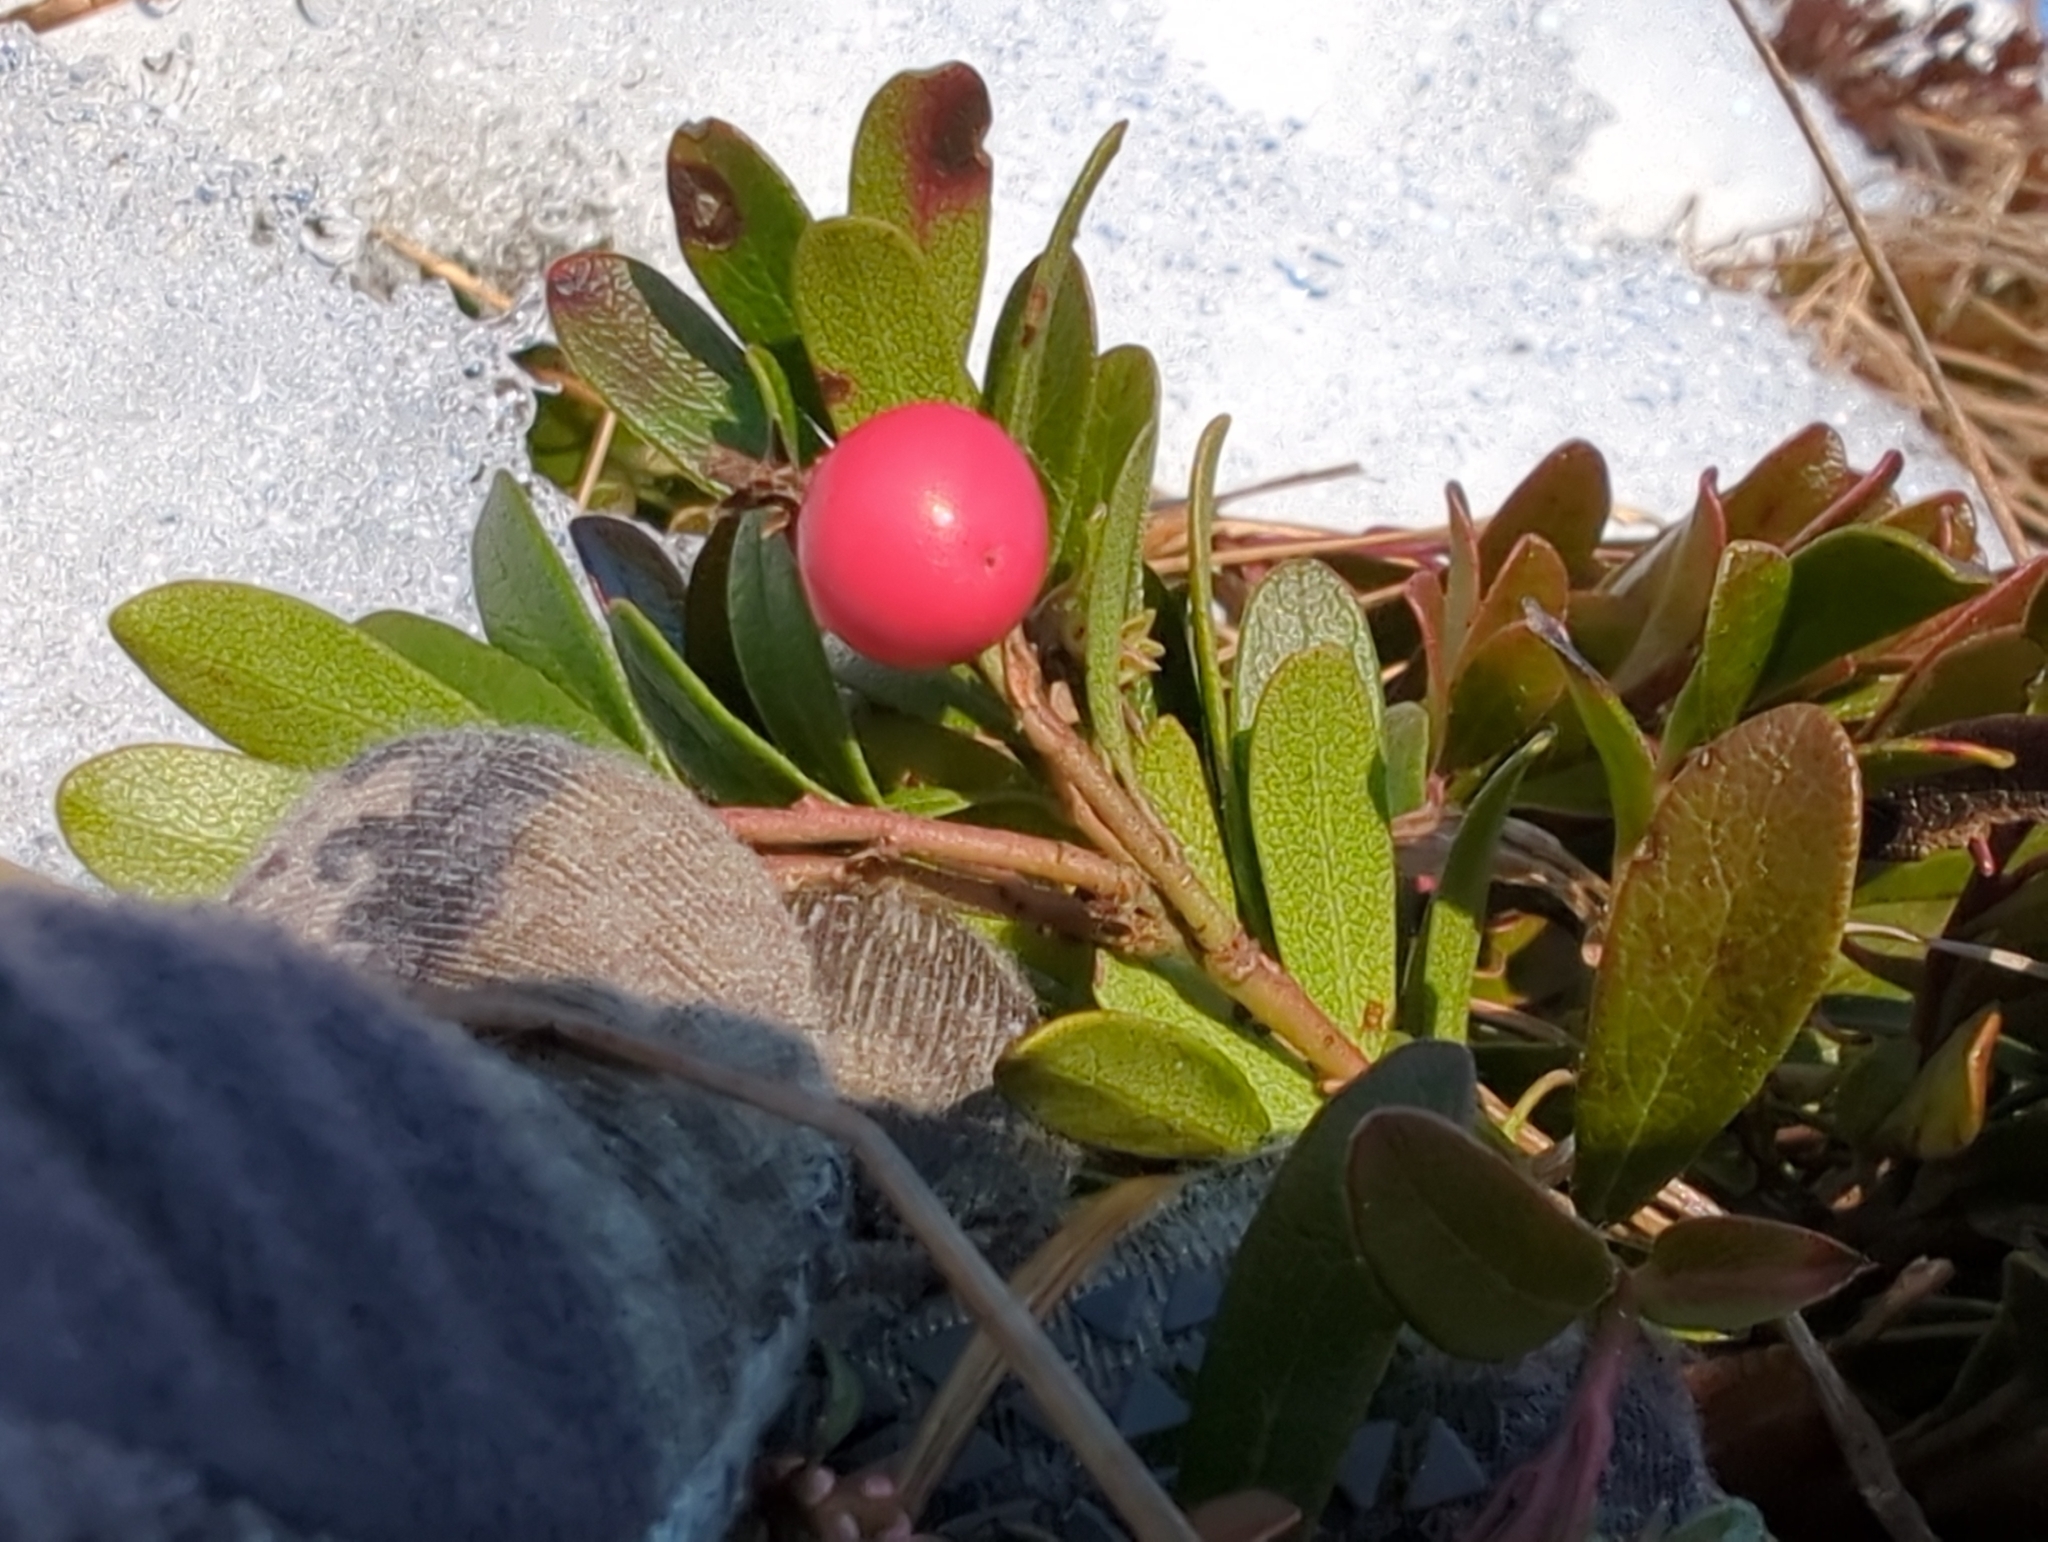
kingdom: Plantae
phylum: Tracheophyta
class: Magnoliopsida
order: Ericales
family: Ericaceae
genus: Arctostaphylos
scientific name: Arctostaphylos uva-ursi
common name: Bearberry
